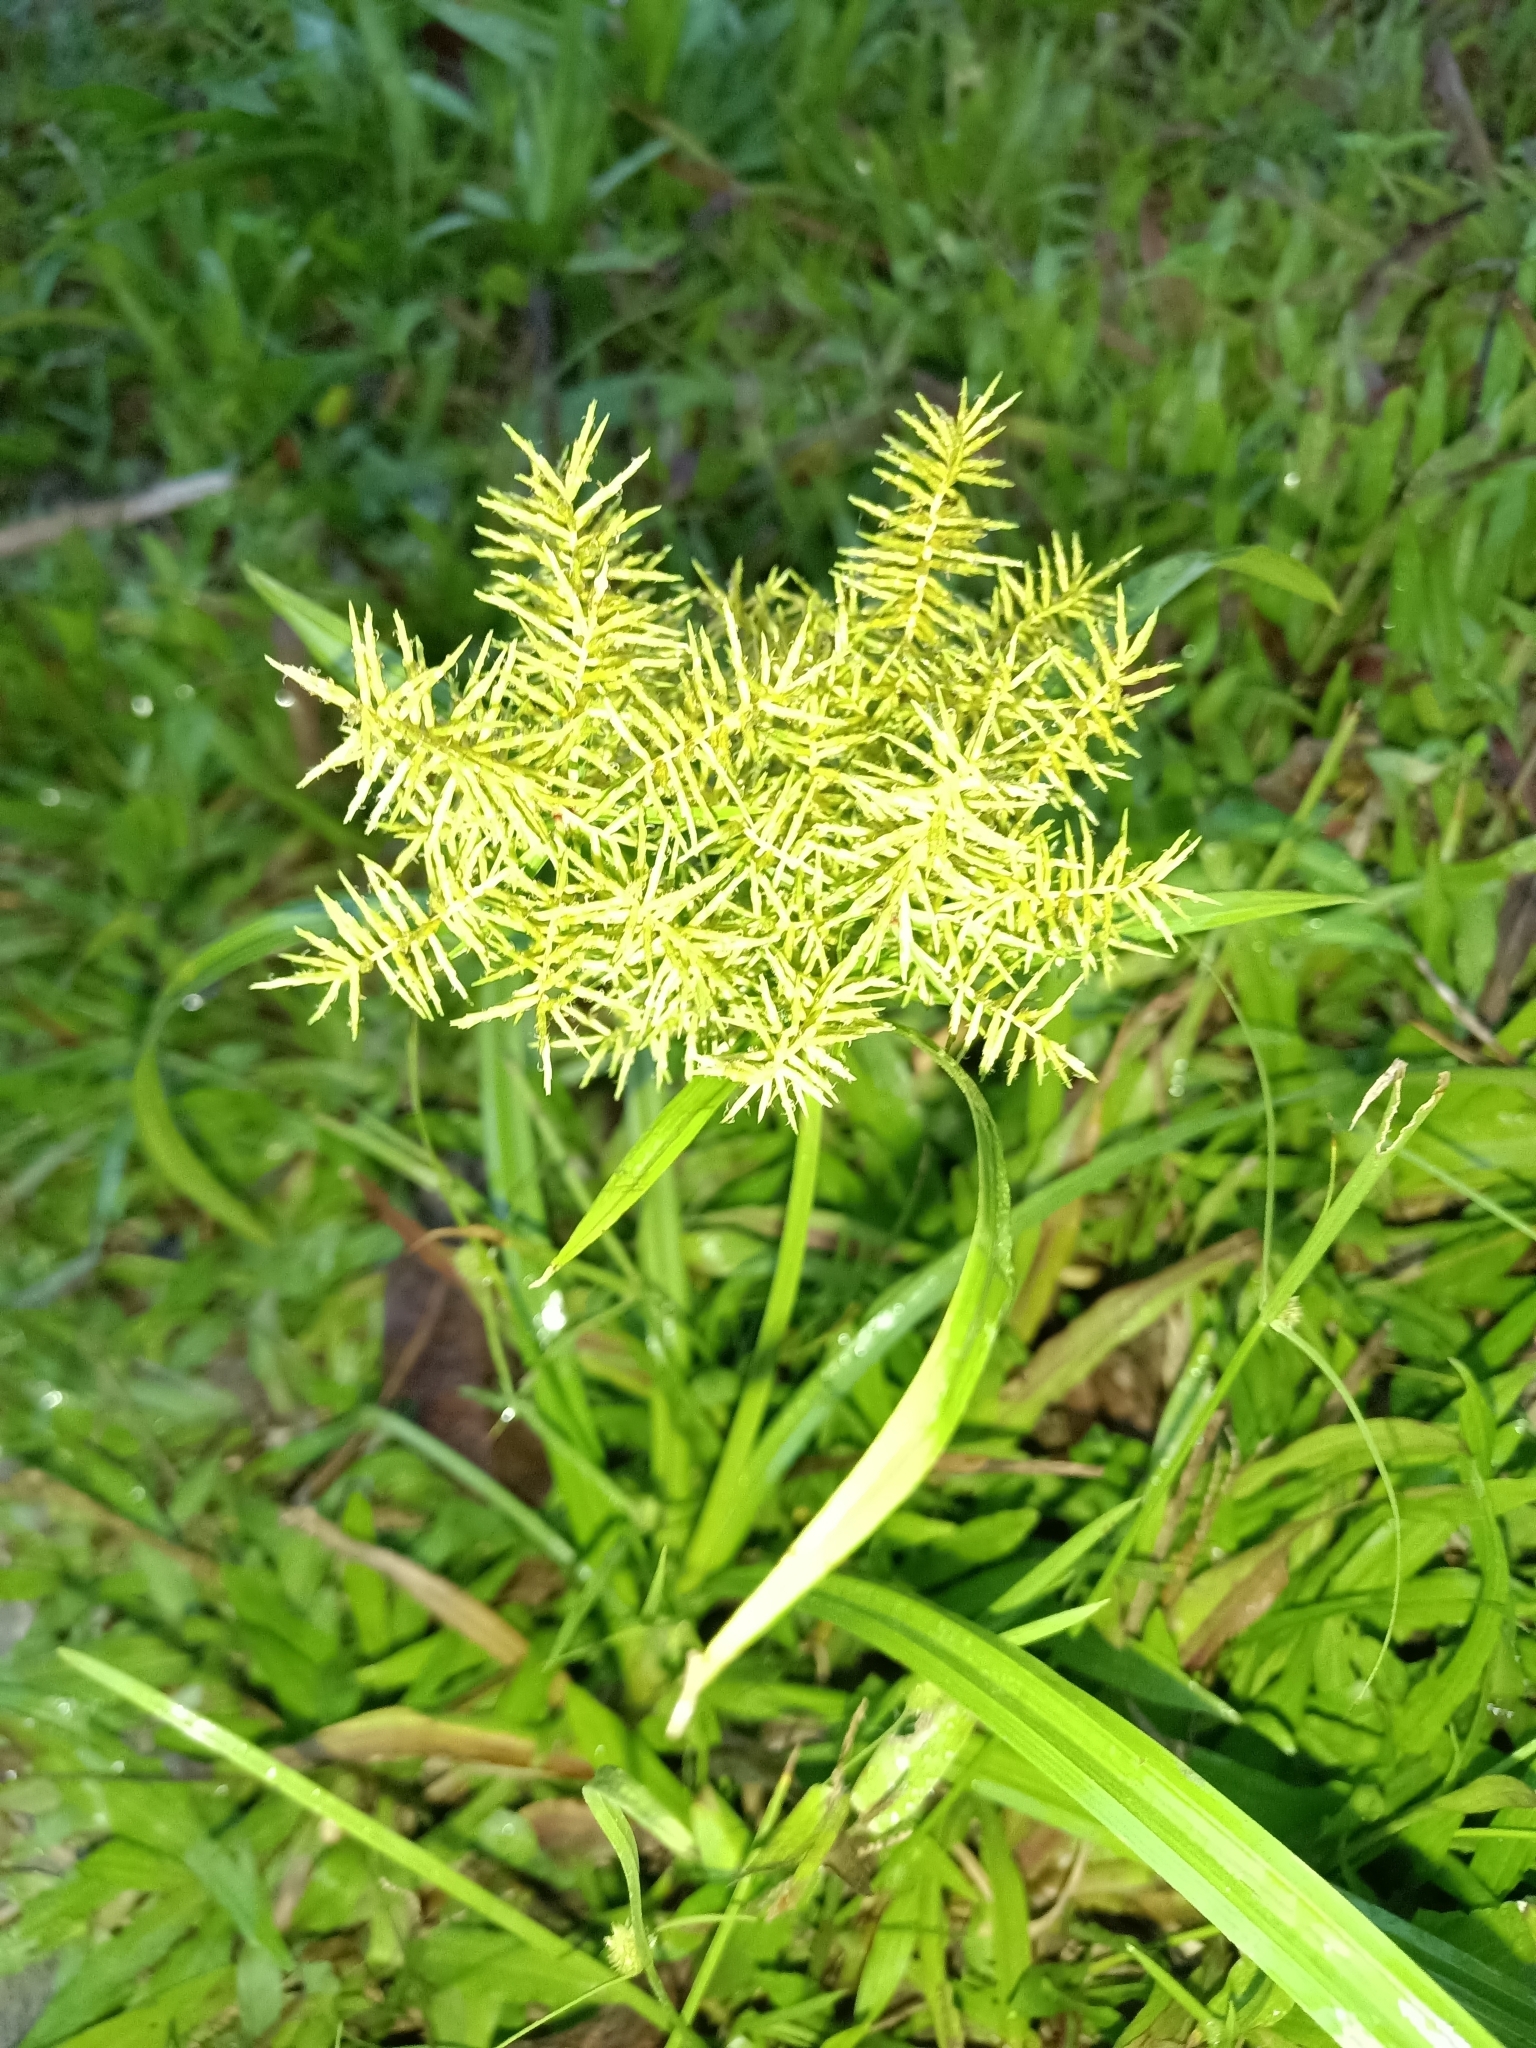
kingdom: Plantae
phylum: Tracheophyta
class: Liliopsida
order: Poales
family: Cyperaceae
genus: Cyperus
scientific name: Cyperus odoratus
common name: Fragrant flatsedge
